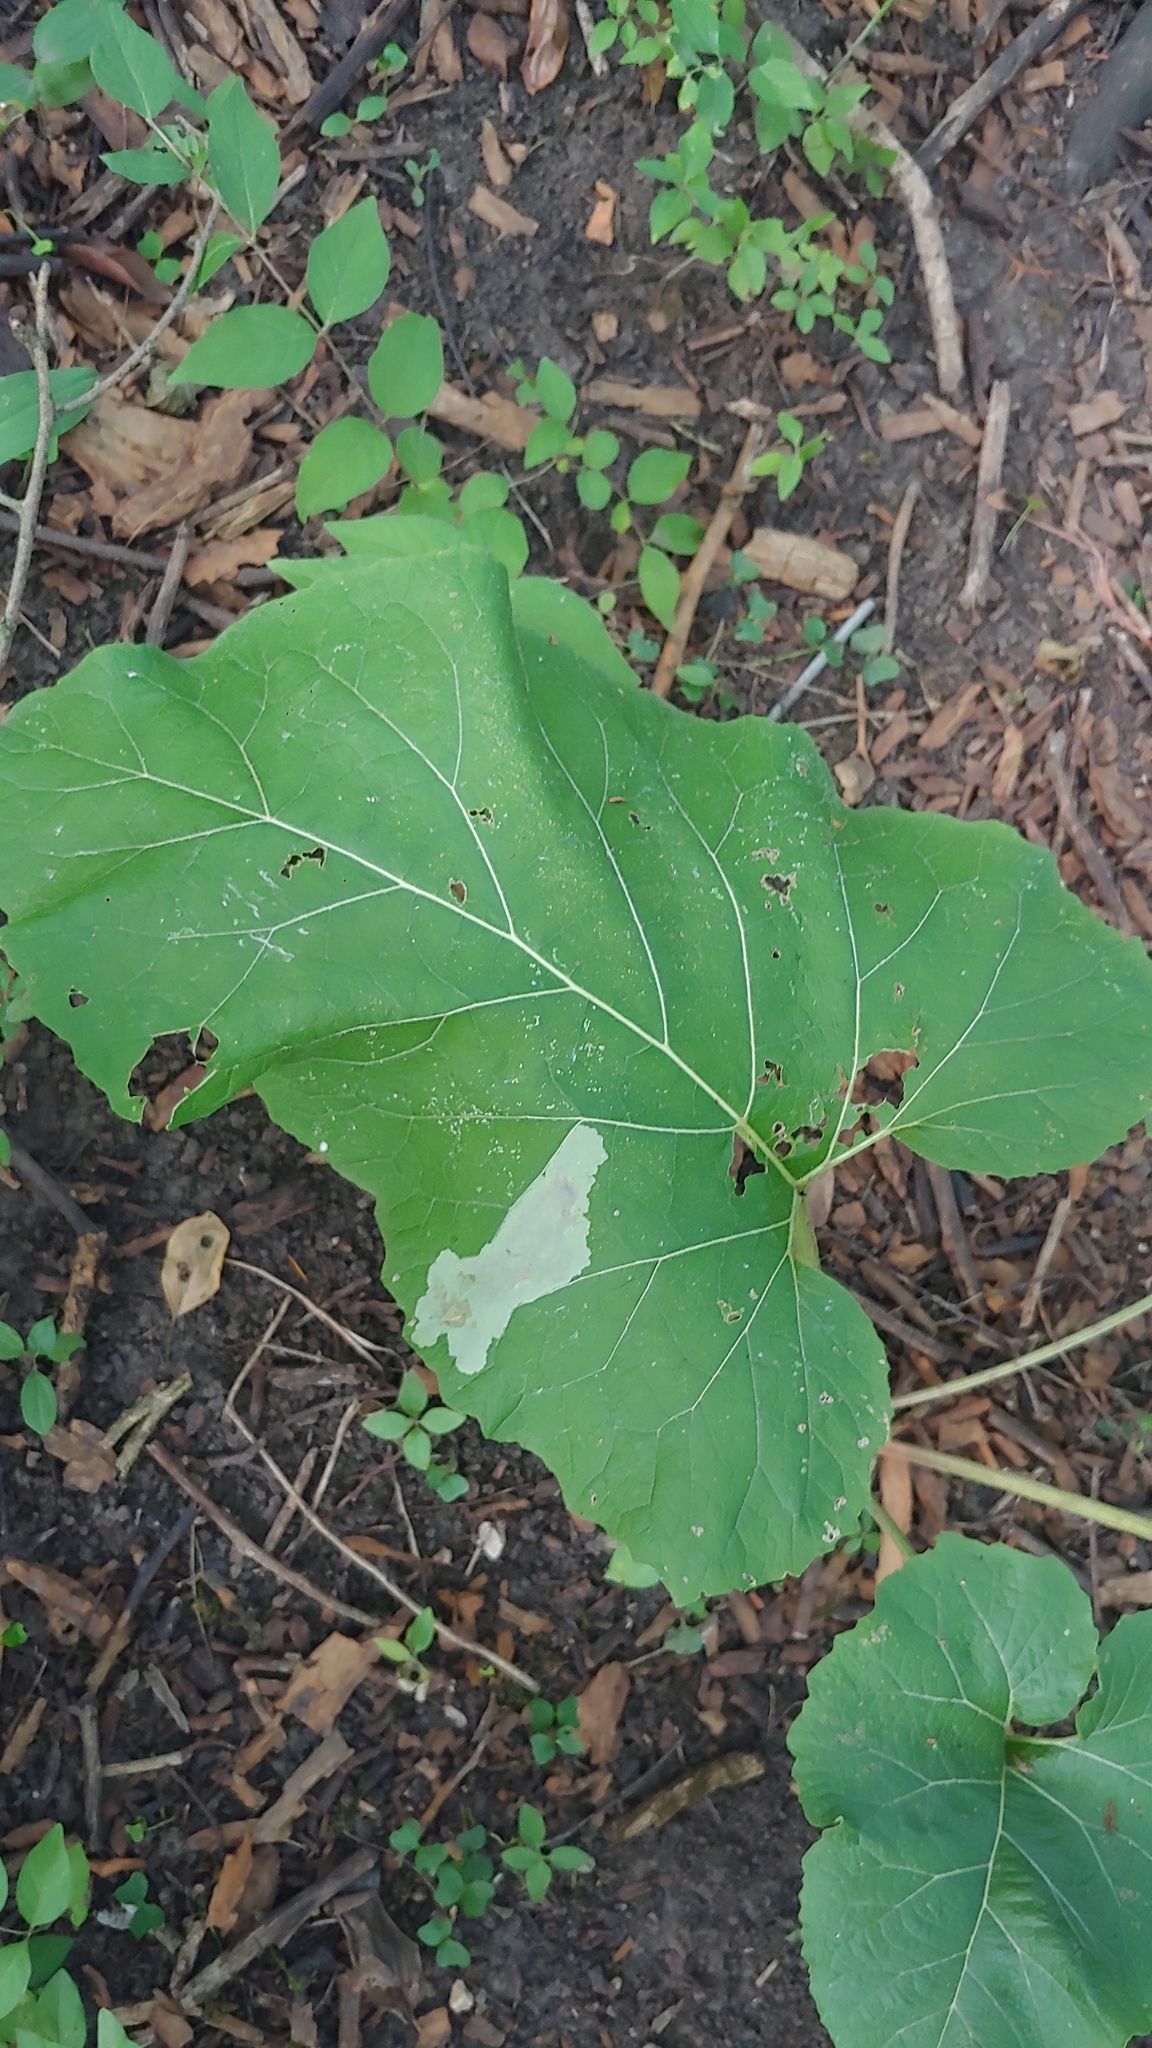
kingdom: Animalia
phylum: Arthropoda
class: Insecta
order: Diptera
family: Agromyzidae
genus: Calycomyza
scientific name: Calycomyza flavinotum
